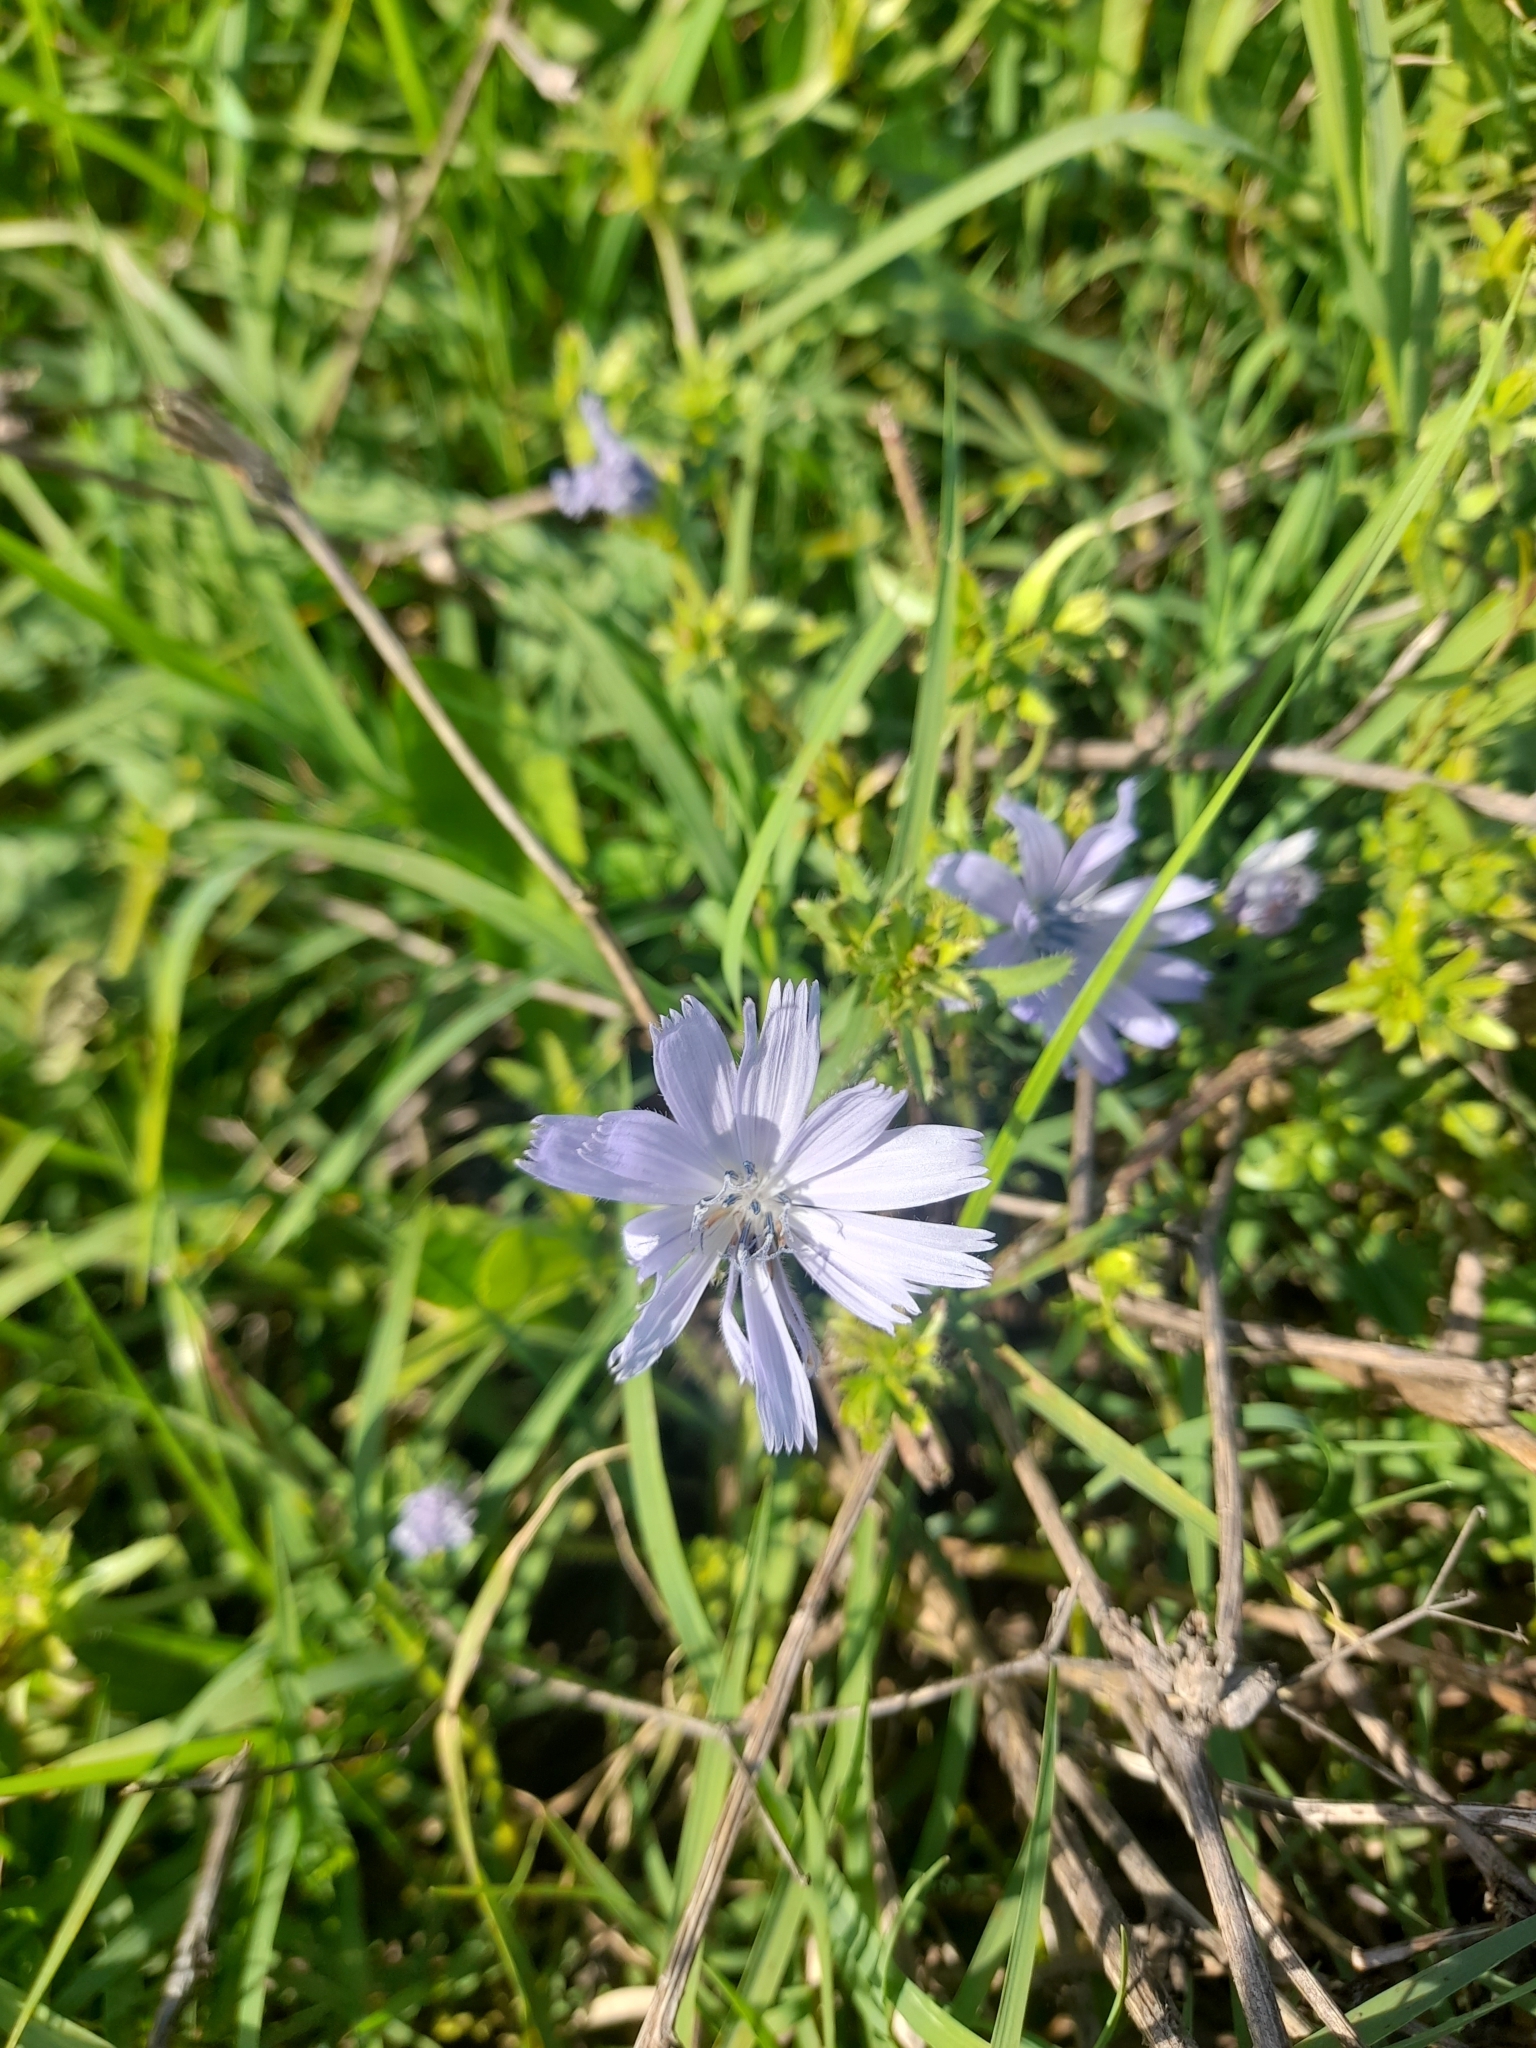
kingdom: Plantae
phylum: Tracheophyta
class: Magnoliopsida
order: Asterales
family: Asteraceae
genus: Cichorium
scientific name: Cichorium intybus
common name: Chicory
